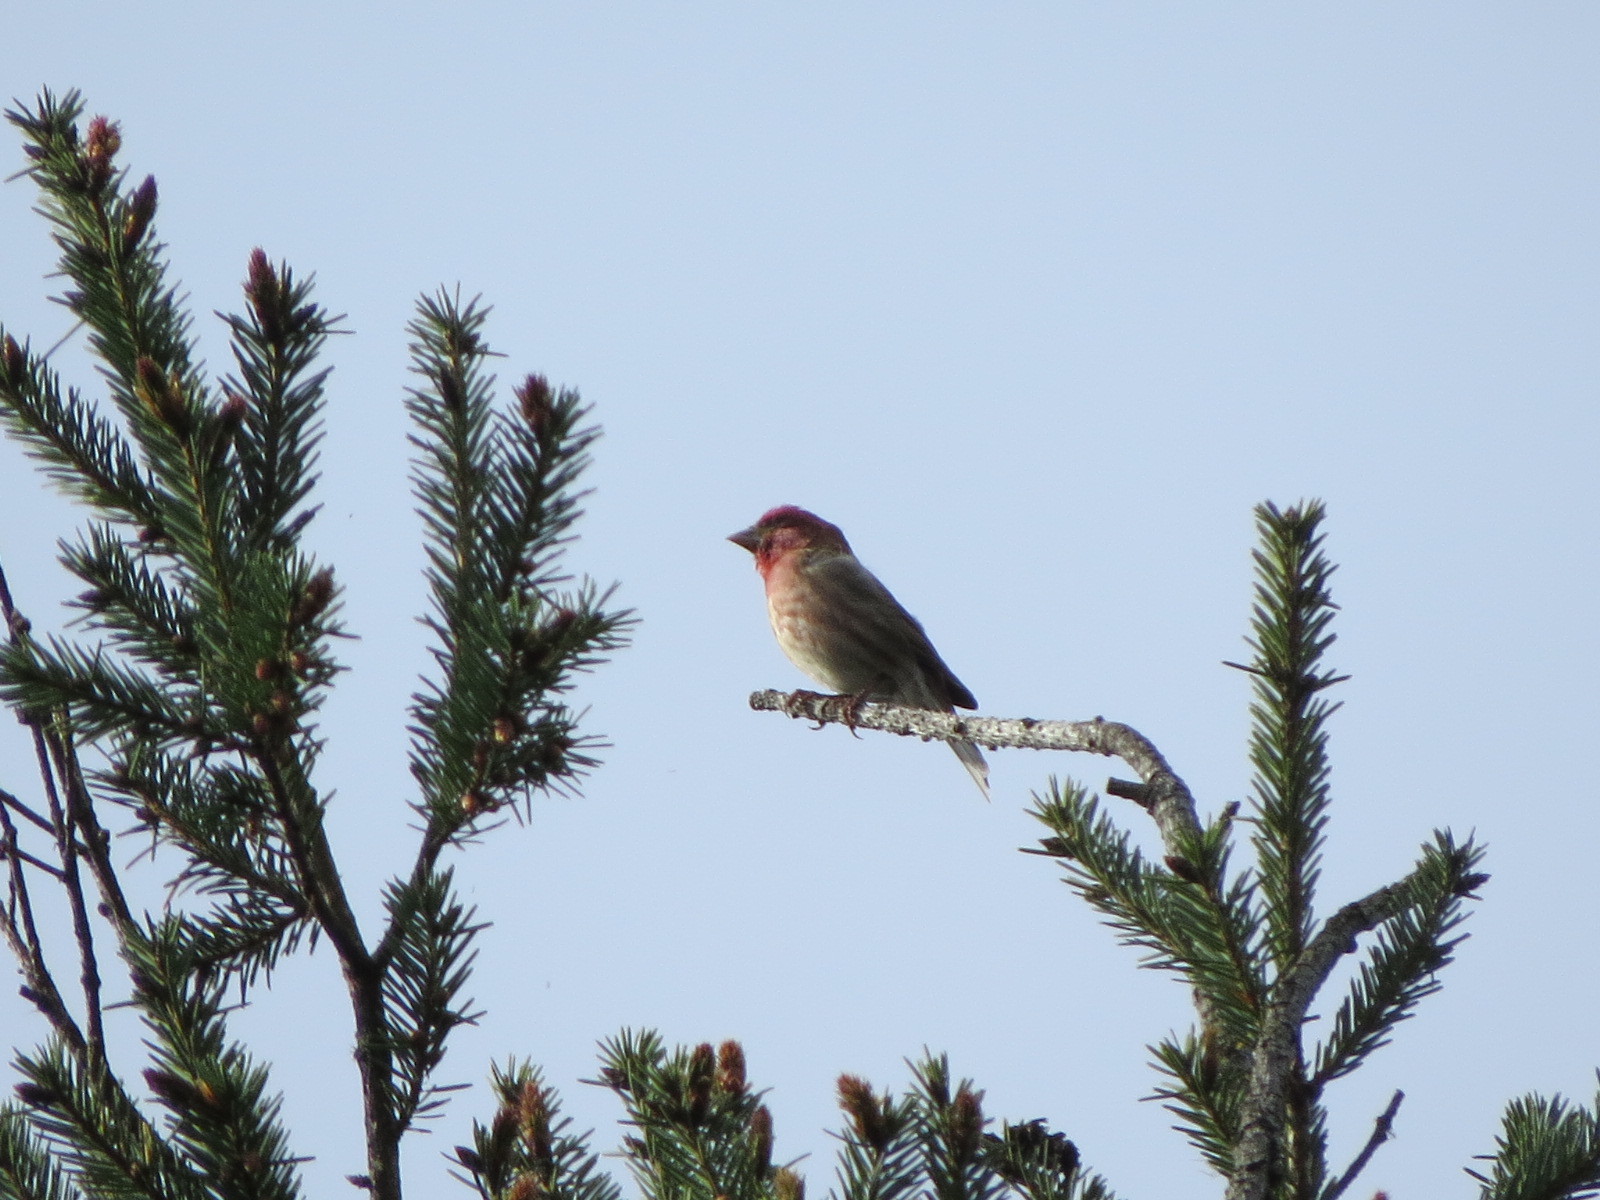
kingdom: Animalia
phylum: Chordata
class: Aves
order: Passeriformes
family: Fringillidae
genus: Haemorhous
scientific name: Haemorhous purpureus
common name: Purple finch
